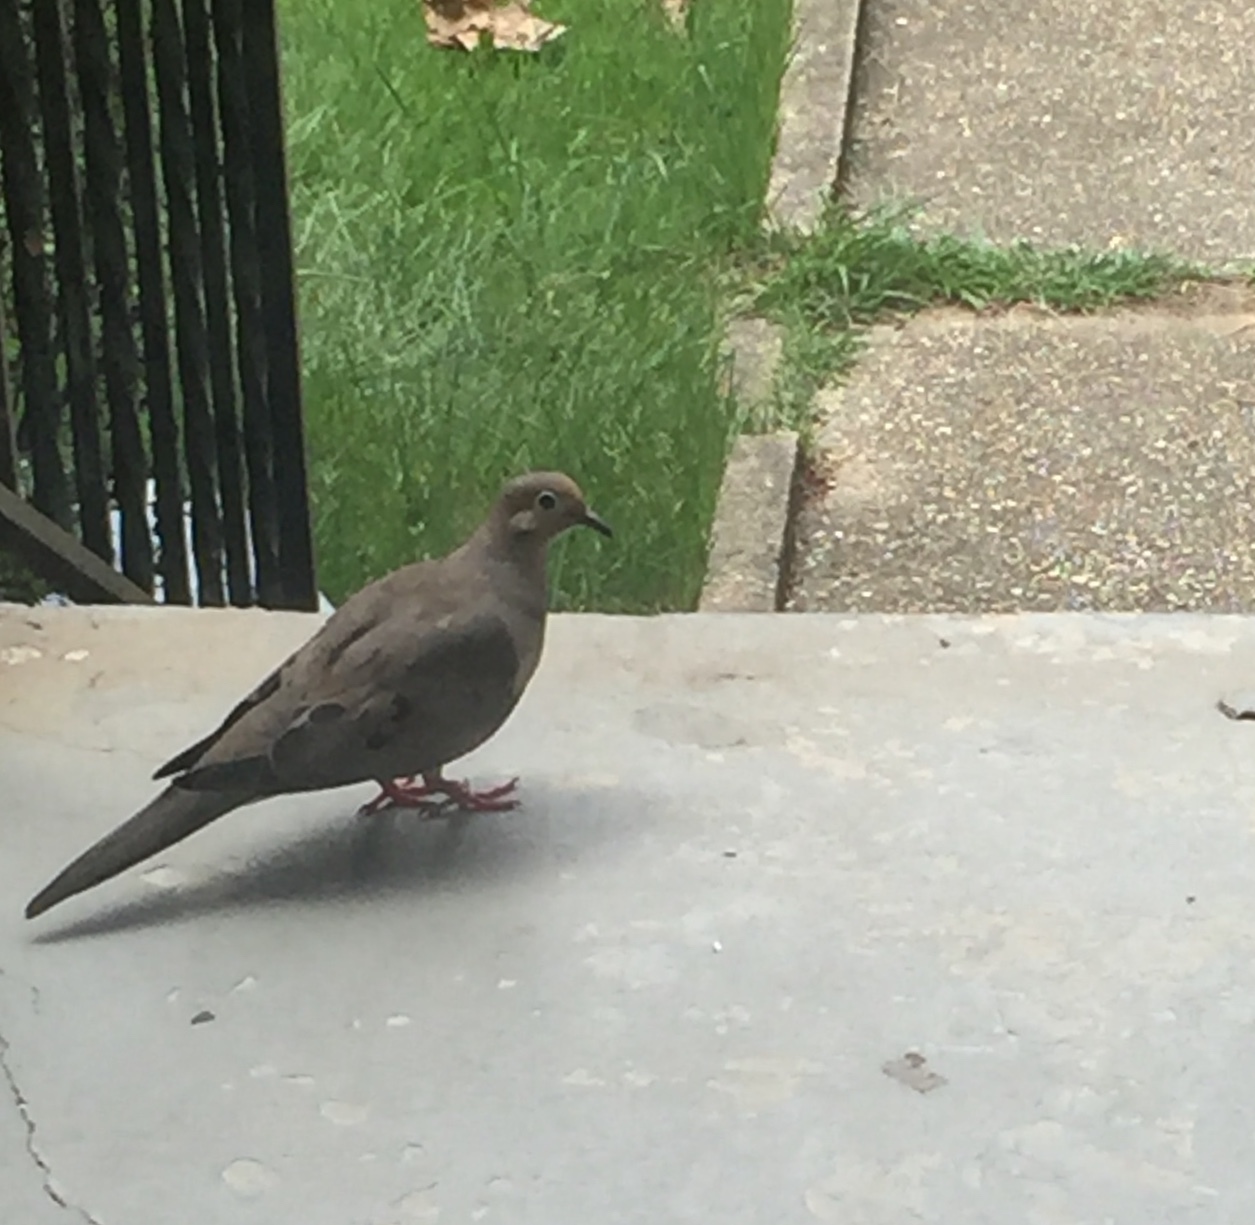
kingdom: Animalia
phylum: Chordata
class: Aves
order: Columbiformes
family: Columbidae
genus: Zenaida
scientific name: Zenaida macroura
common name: Mourning dove
